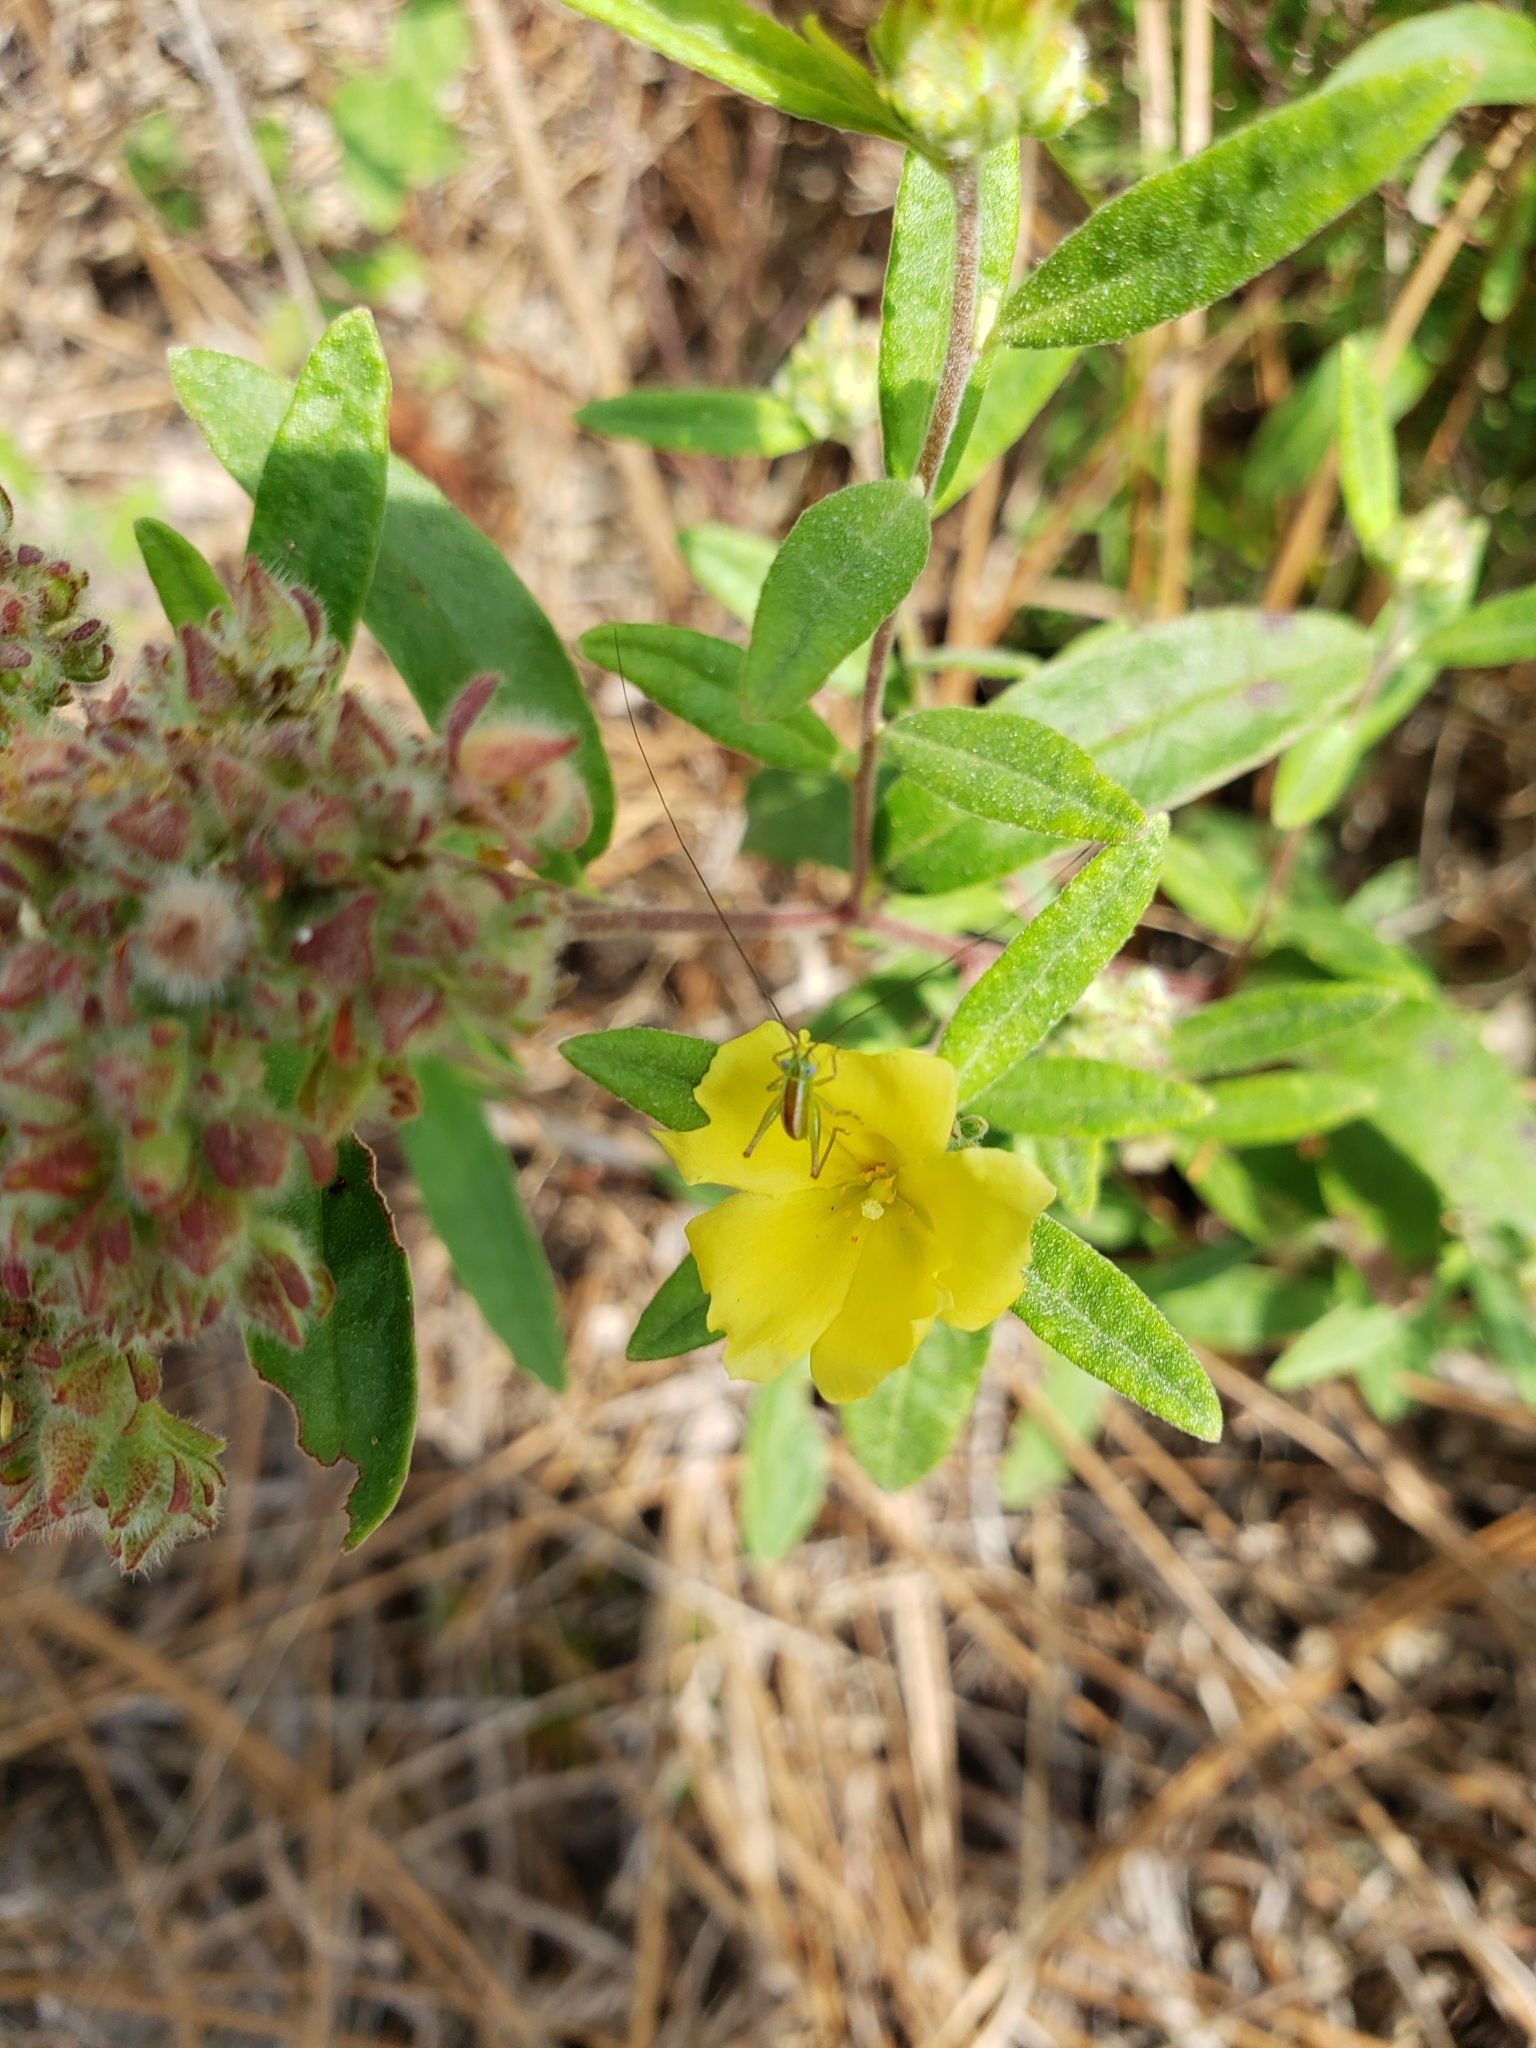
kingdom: Plantae
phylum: Tracheophyta
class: Magnoliopsida
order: Malvales
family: Cistaceae
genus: Crocanthemum
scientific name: Crocanthemum corymbosum
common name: Pinebarren sun-rose
